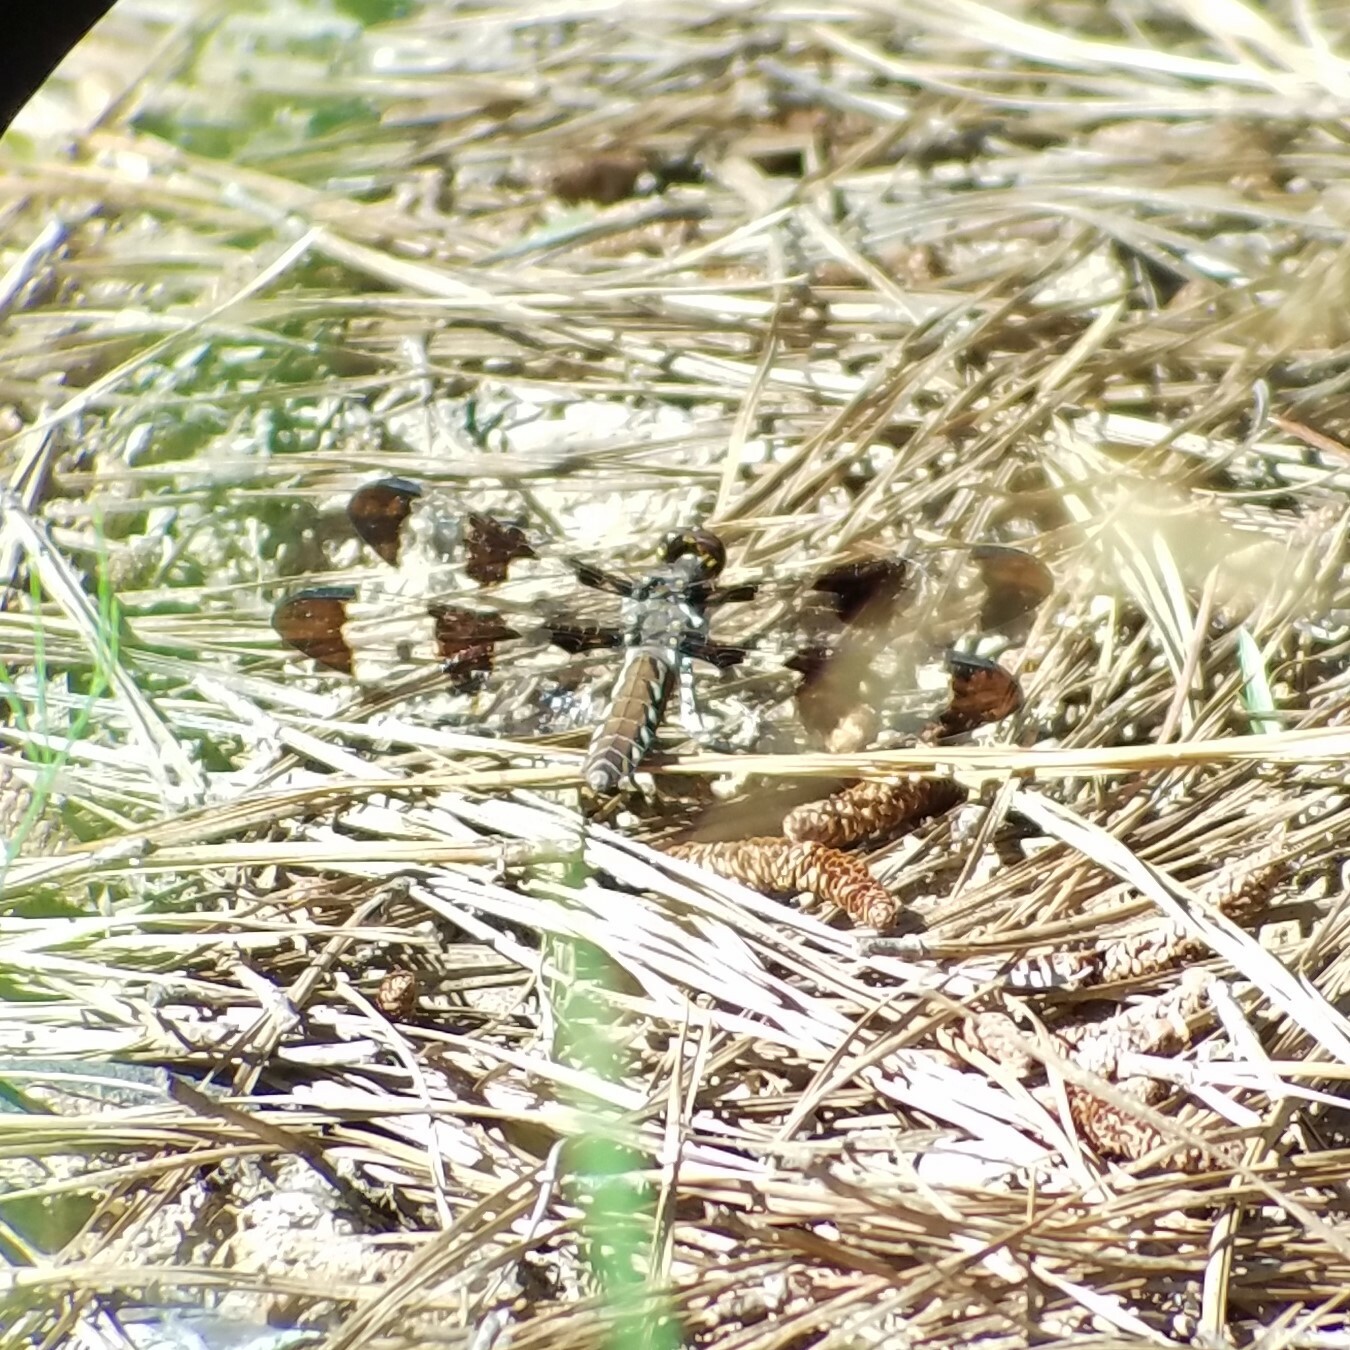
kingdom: Animalia
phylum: Arthropoda
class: Insecta
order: Odonata
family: Libellulidae
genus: Plathemis
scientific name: Plathemis lydia
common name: Common whitetail
